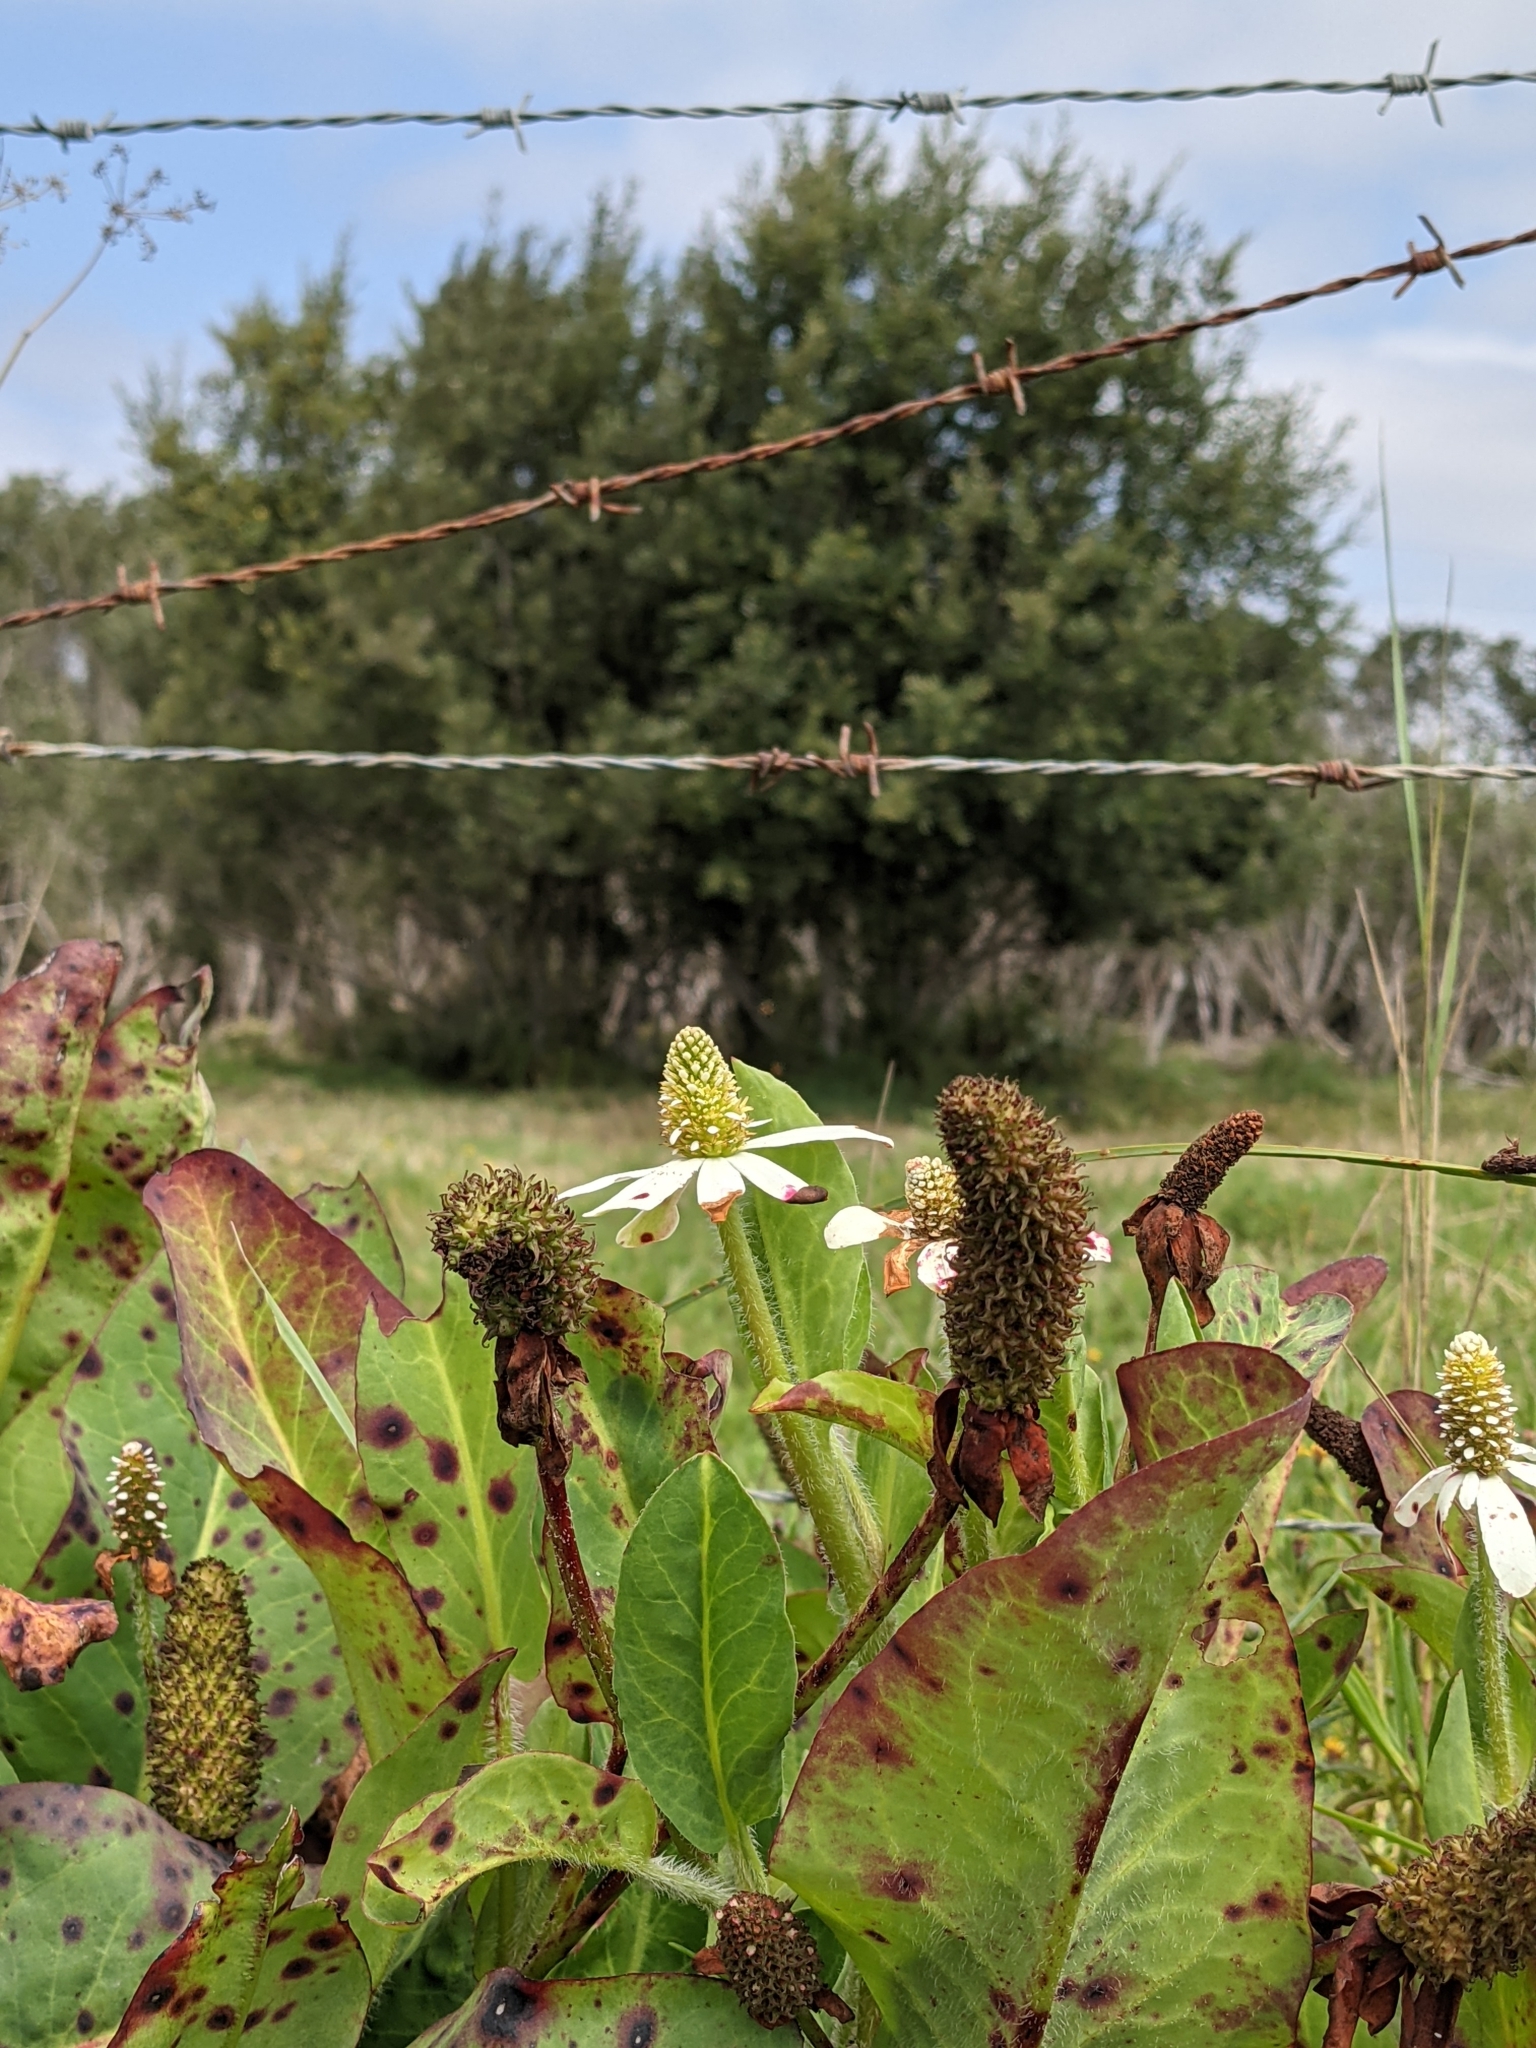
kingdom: Plantae
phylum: Tracheophyta
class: Magnoliopsida
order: Piperales
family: Saururaceae
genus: Anemopsis
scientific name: Anemopsis californica
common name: Apache-beads
